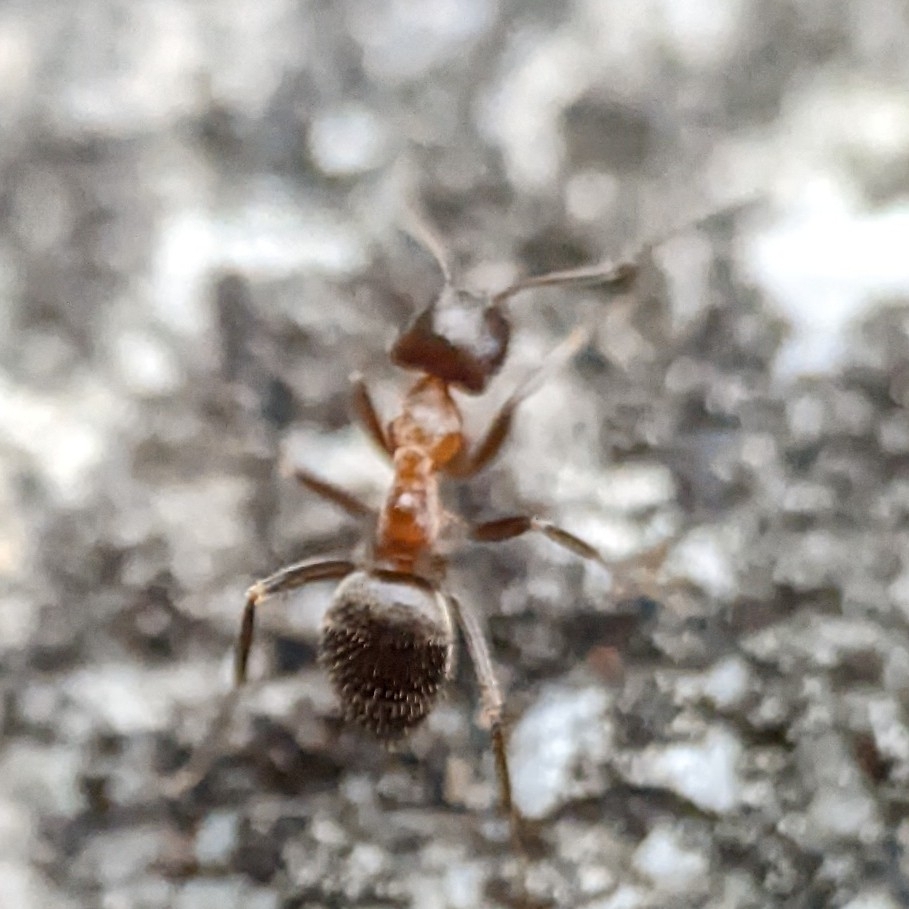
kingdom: Animalia
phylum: Arthropoda
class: Insecta
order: Hymenoptera
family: Formicidae
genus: Lasius
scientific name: Lasius emarginatus
